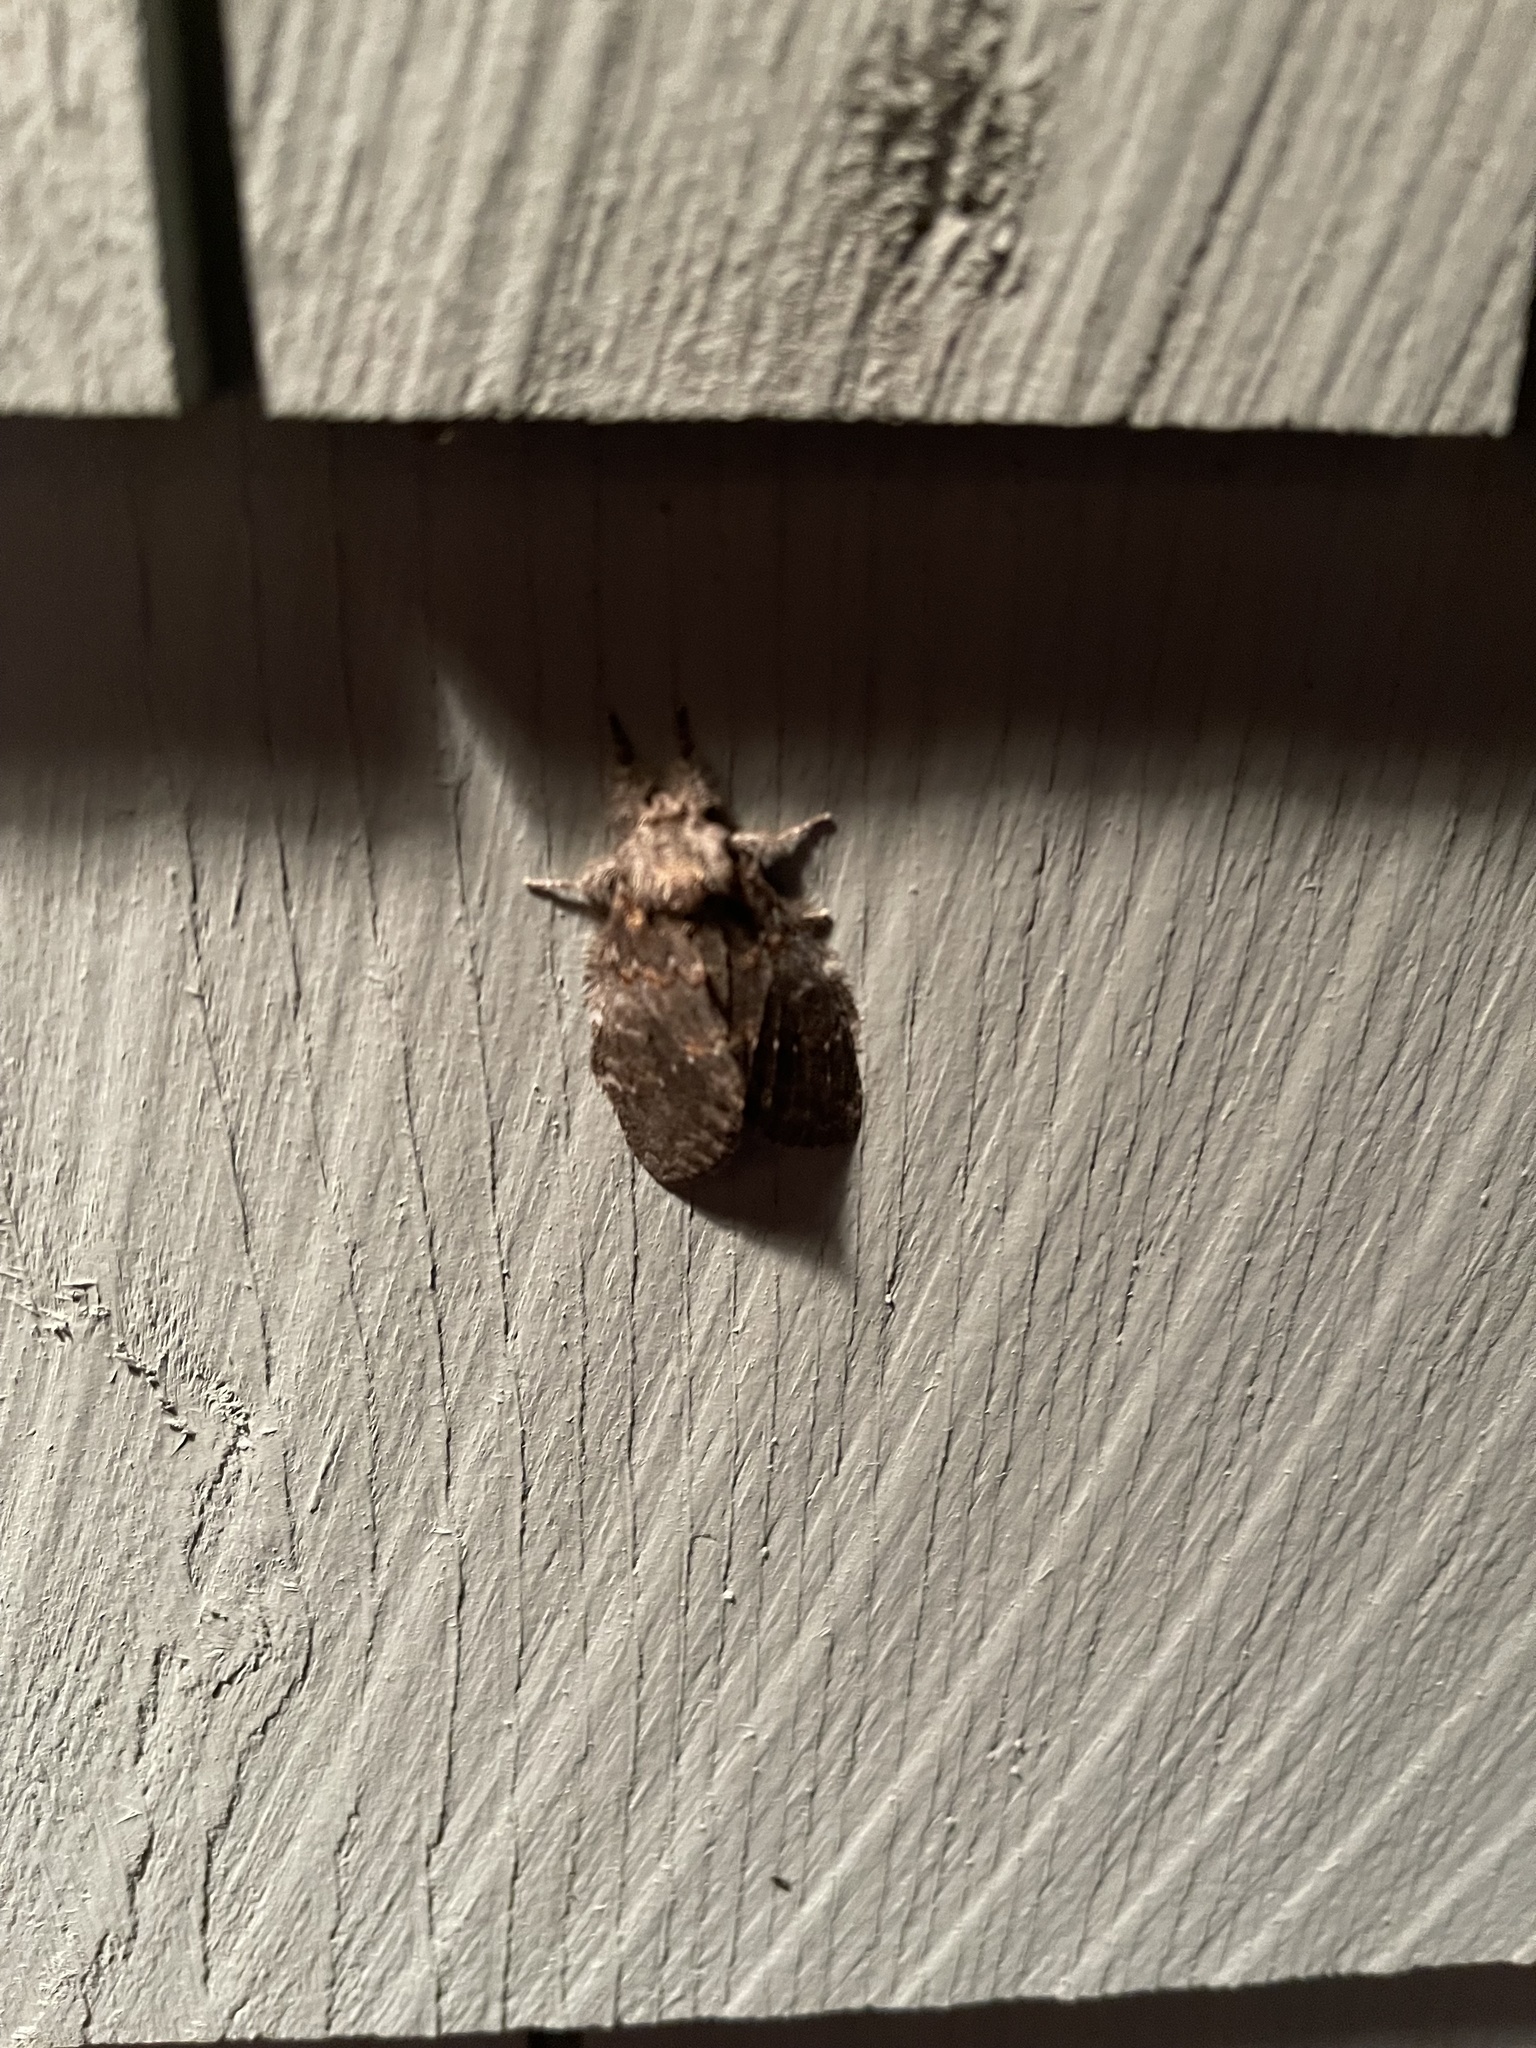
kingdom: Animalia
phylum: Arthropoda
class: Insecta
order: Lepidoptera
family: Notodontidae
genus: Peridea
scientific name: Peridea angulosa
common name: Angulose prominent
